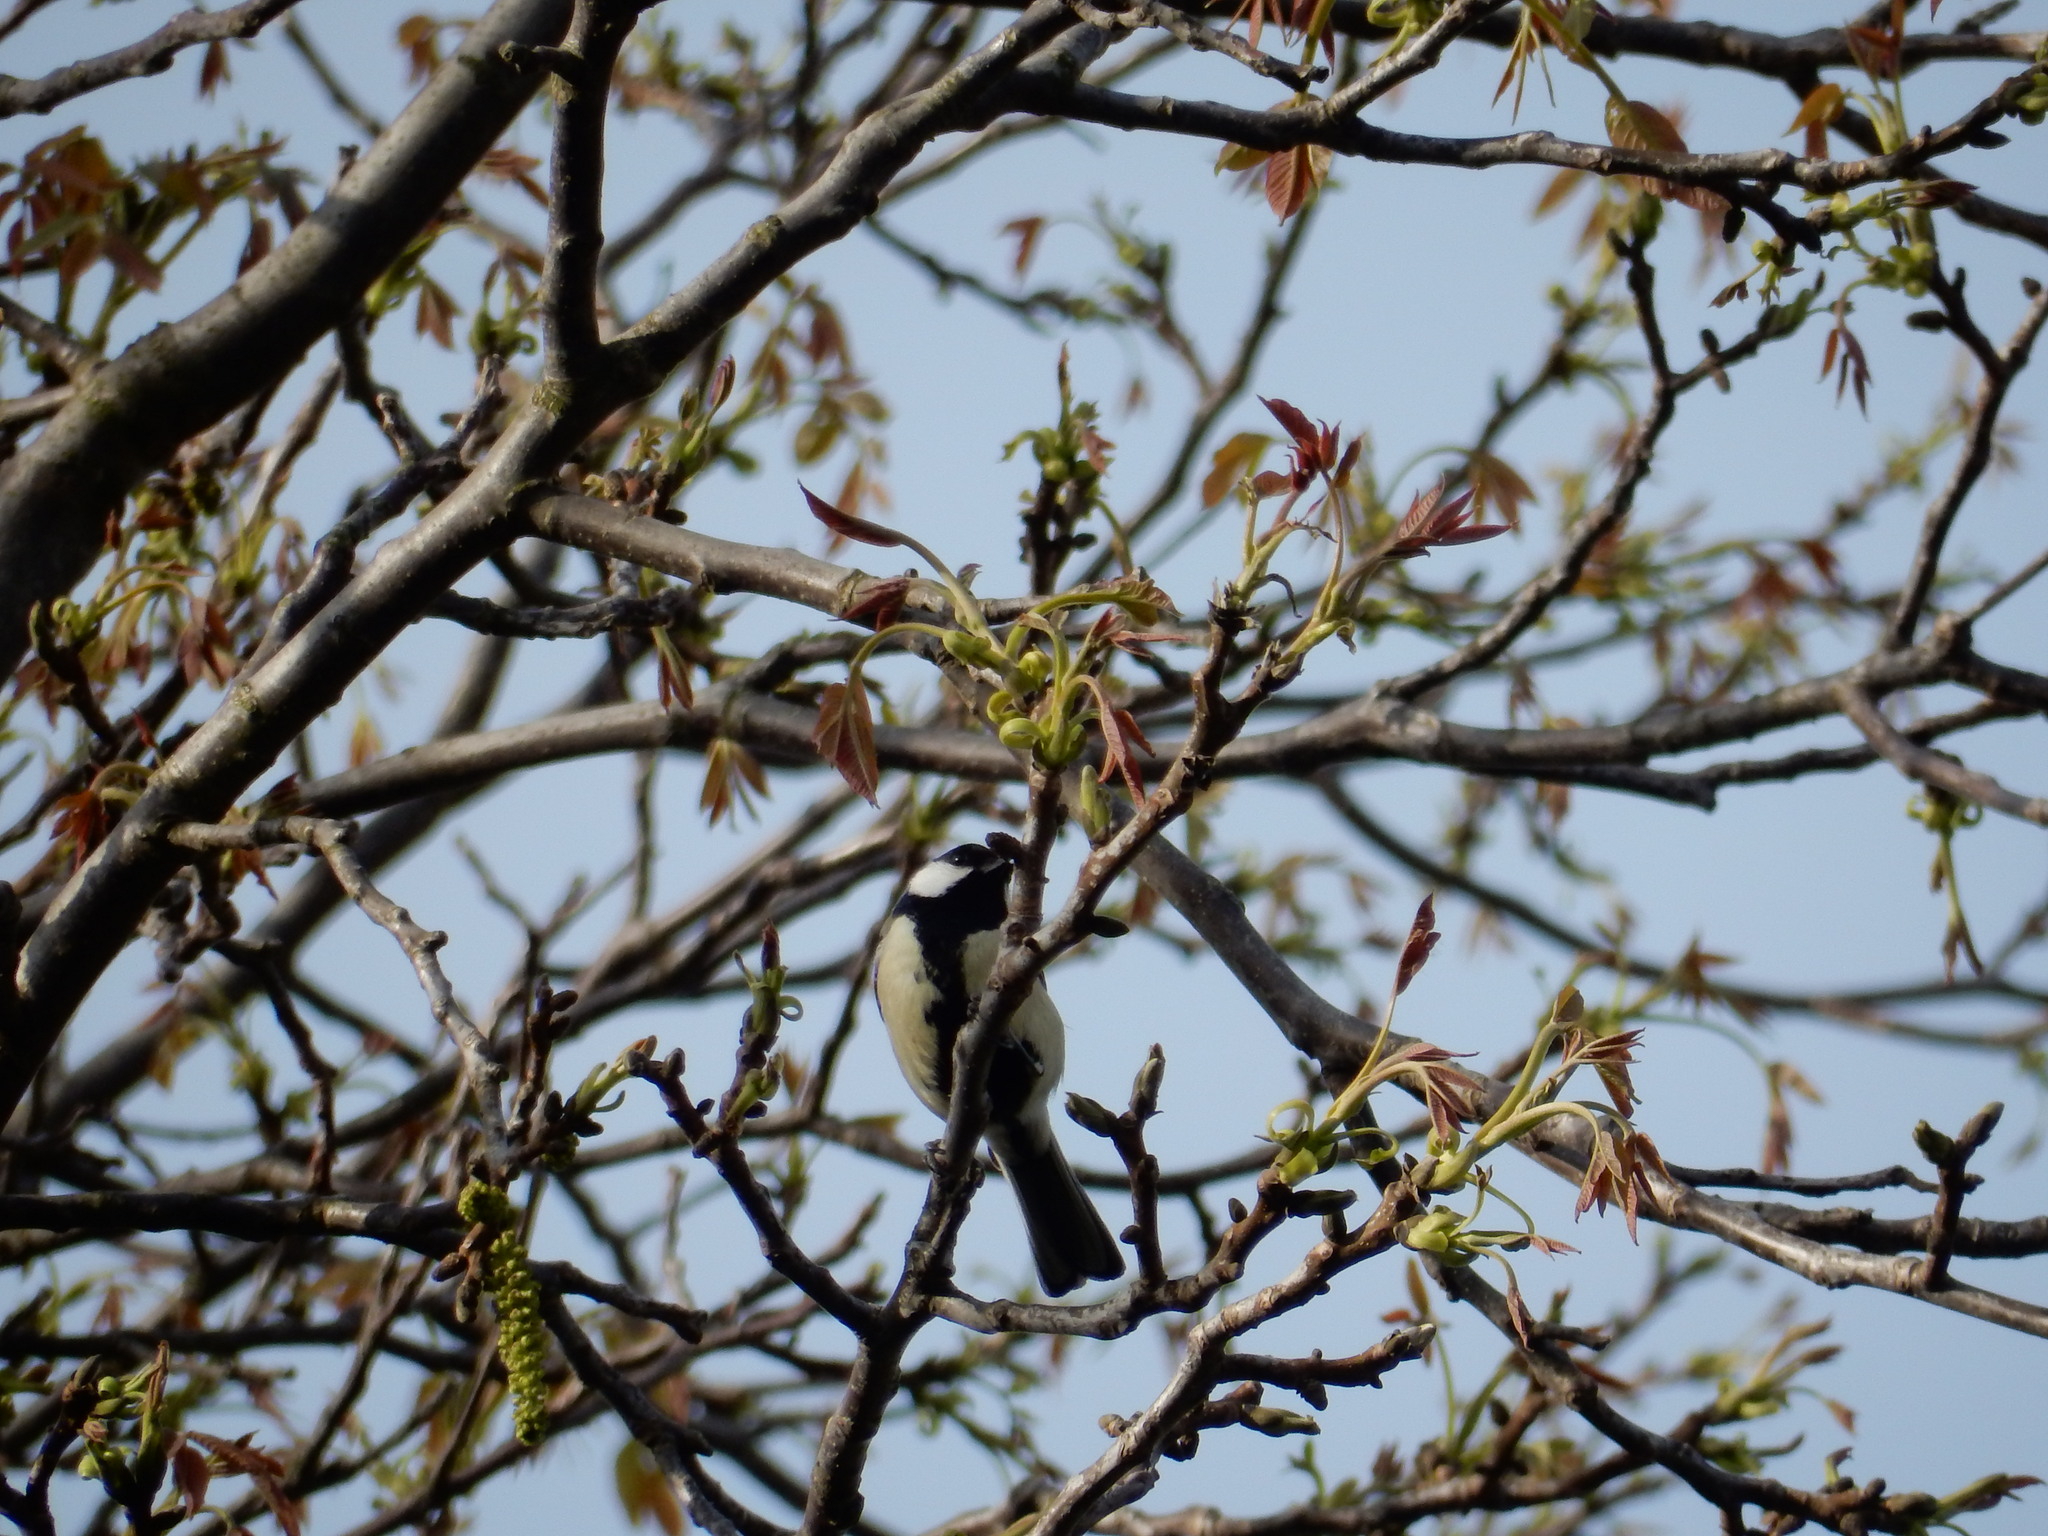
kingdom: Animalia
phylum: Chordata
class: Aves
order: Passeriformes
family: Paridae
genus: Parus
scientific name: Parus major
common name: Great tit
